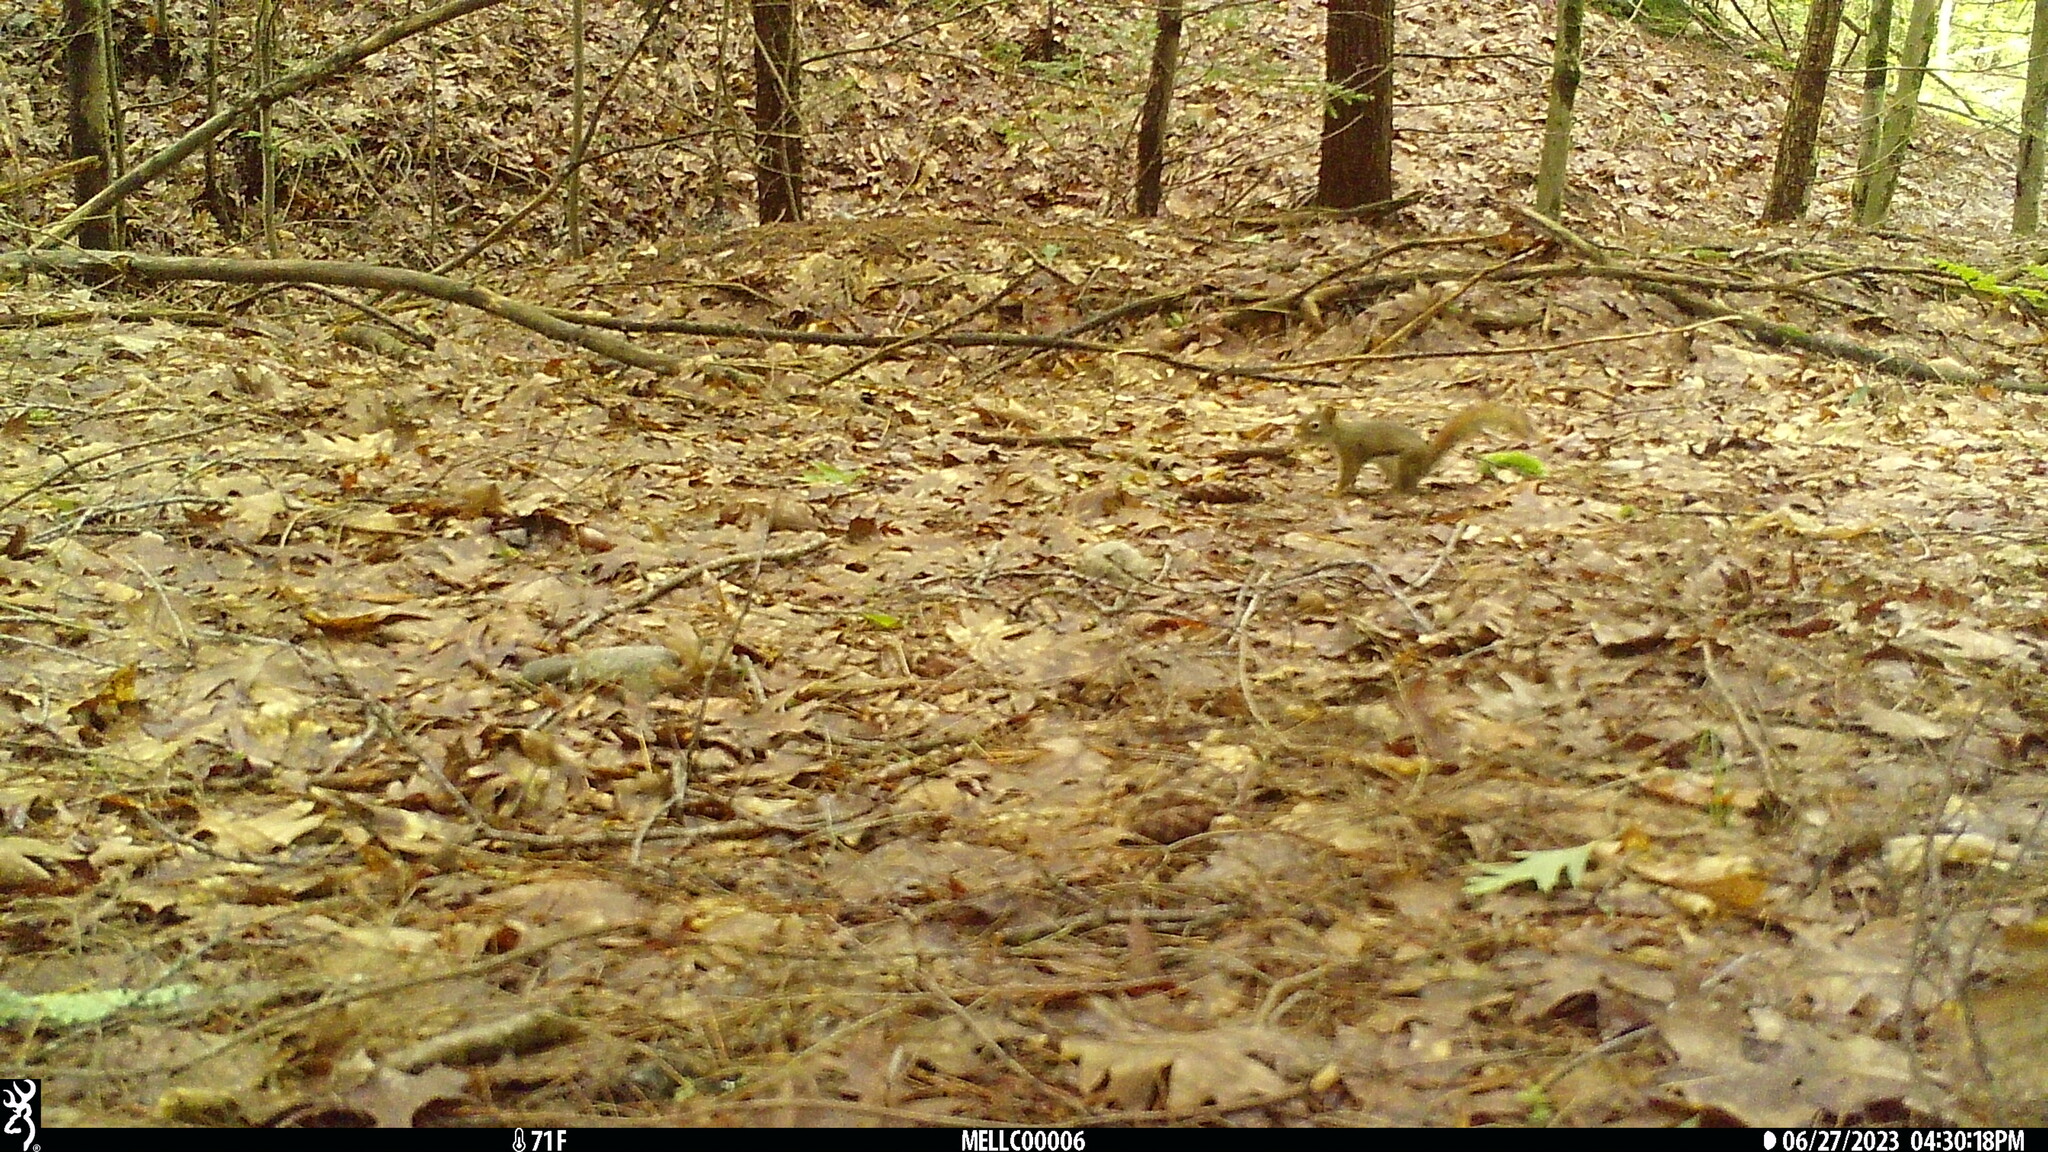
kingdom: Animalia
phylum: Chordata
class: Mammalia
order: Rodentia
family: Sciuridae
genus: Tamiasciurus
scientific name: Tamiasciurus hudsonicus
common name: Red squirrel
